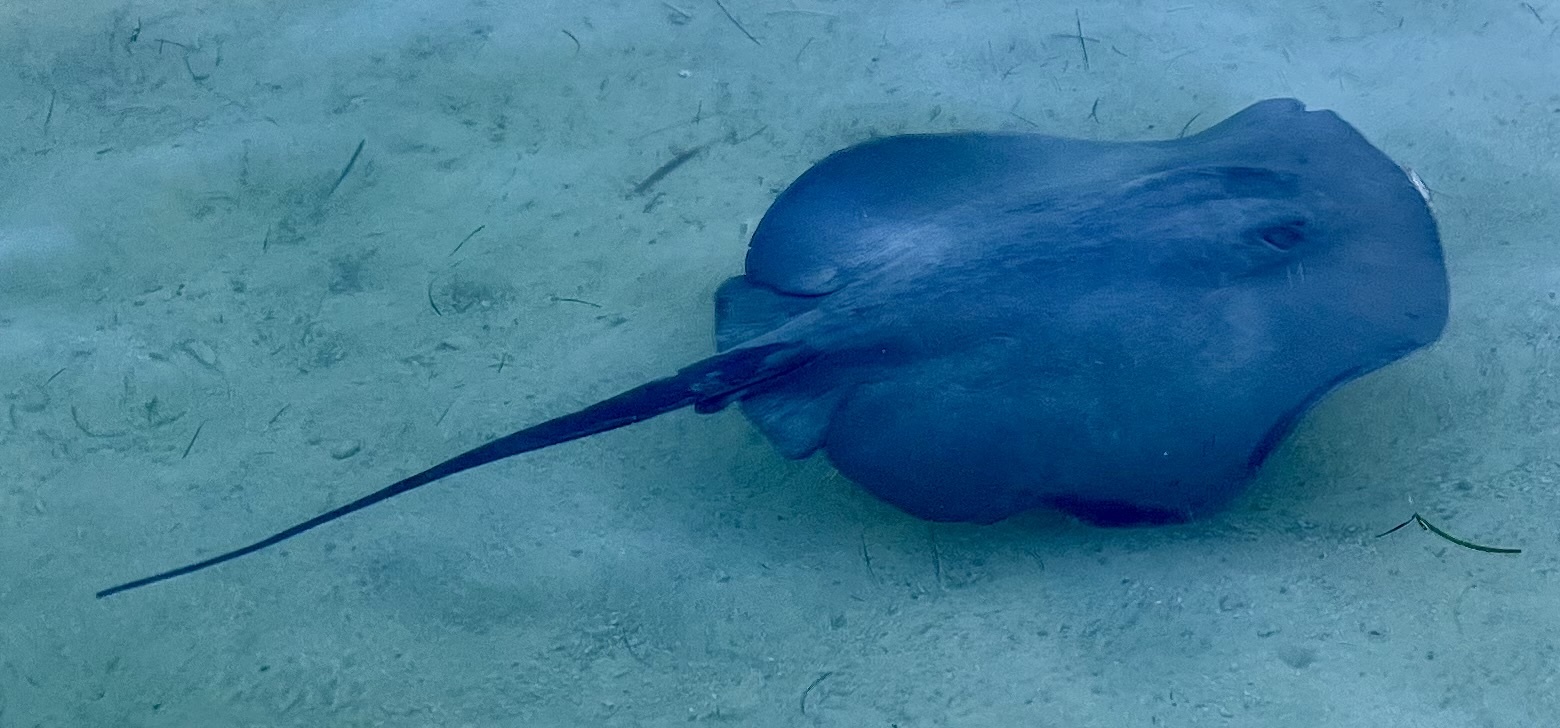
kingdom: Animalia
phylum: Chordata
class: Elasmobranchii
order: Myliobatiformes
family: Potamotrygonidae
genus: Styracura
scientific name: Styracura schmardae
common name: Atlantic chupare
